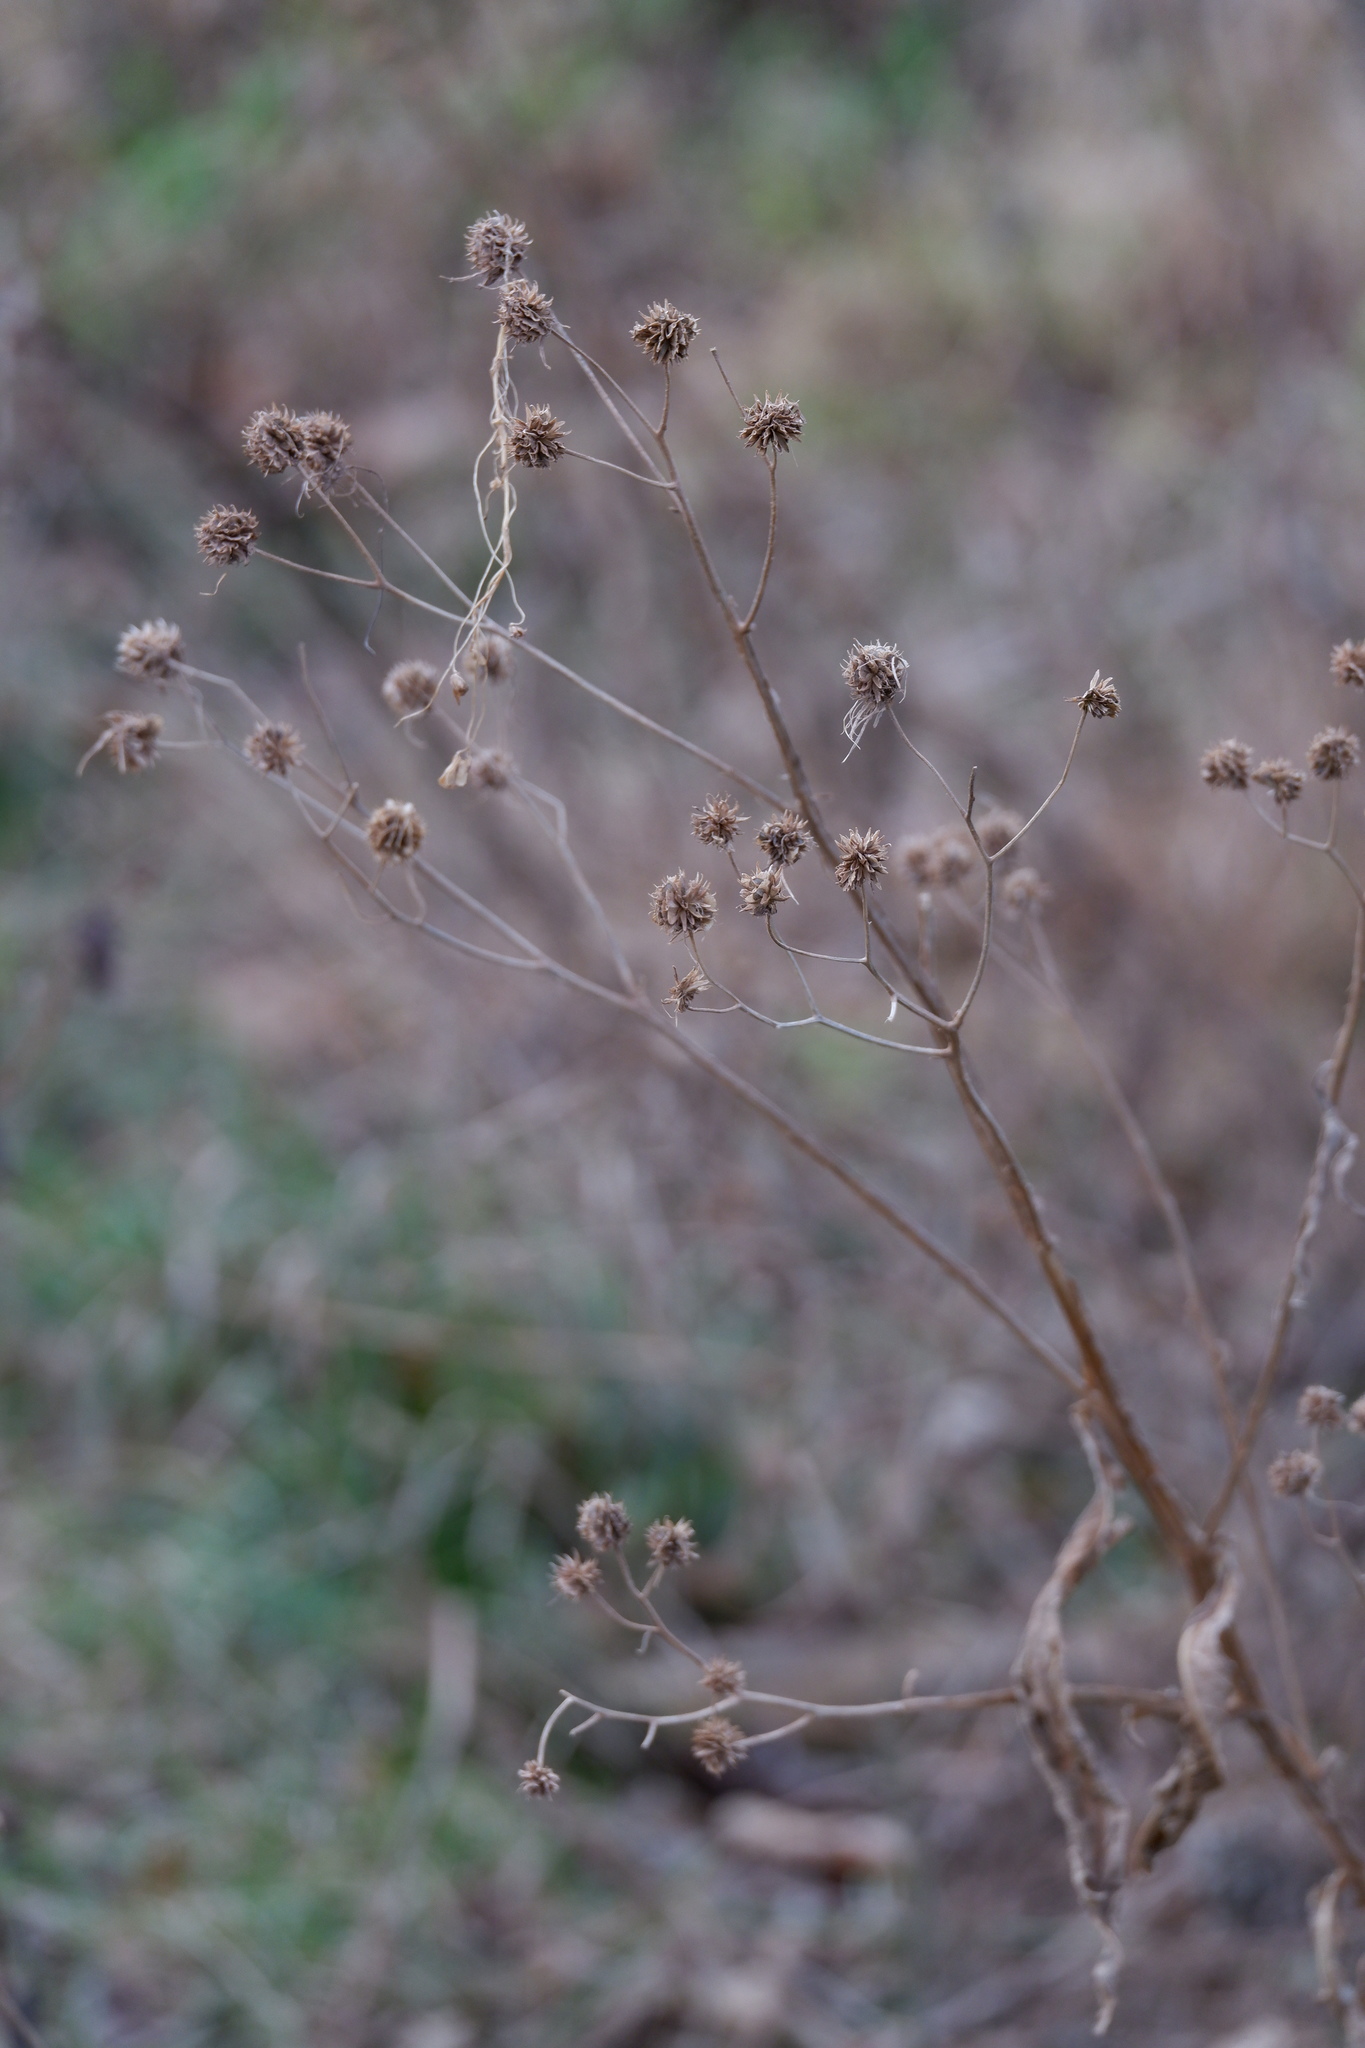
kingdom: Plantae
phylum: Tracheophyta
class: Magnoliopsida
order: Asterales
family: Asteraceae
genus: Verbesina
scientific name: Verbesina alternifolia
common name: Wingstem
